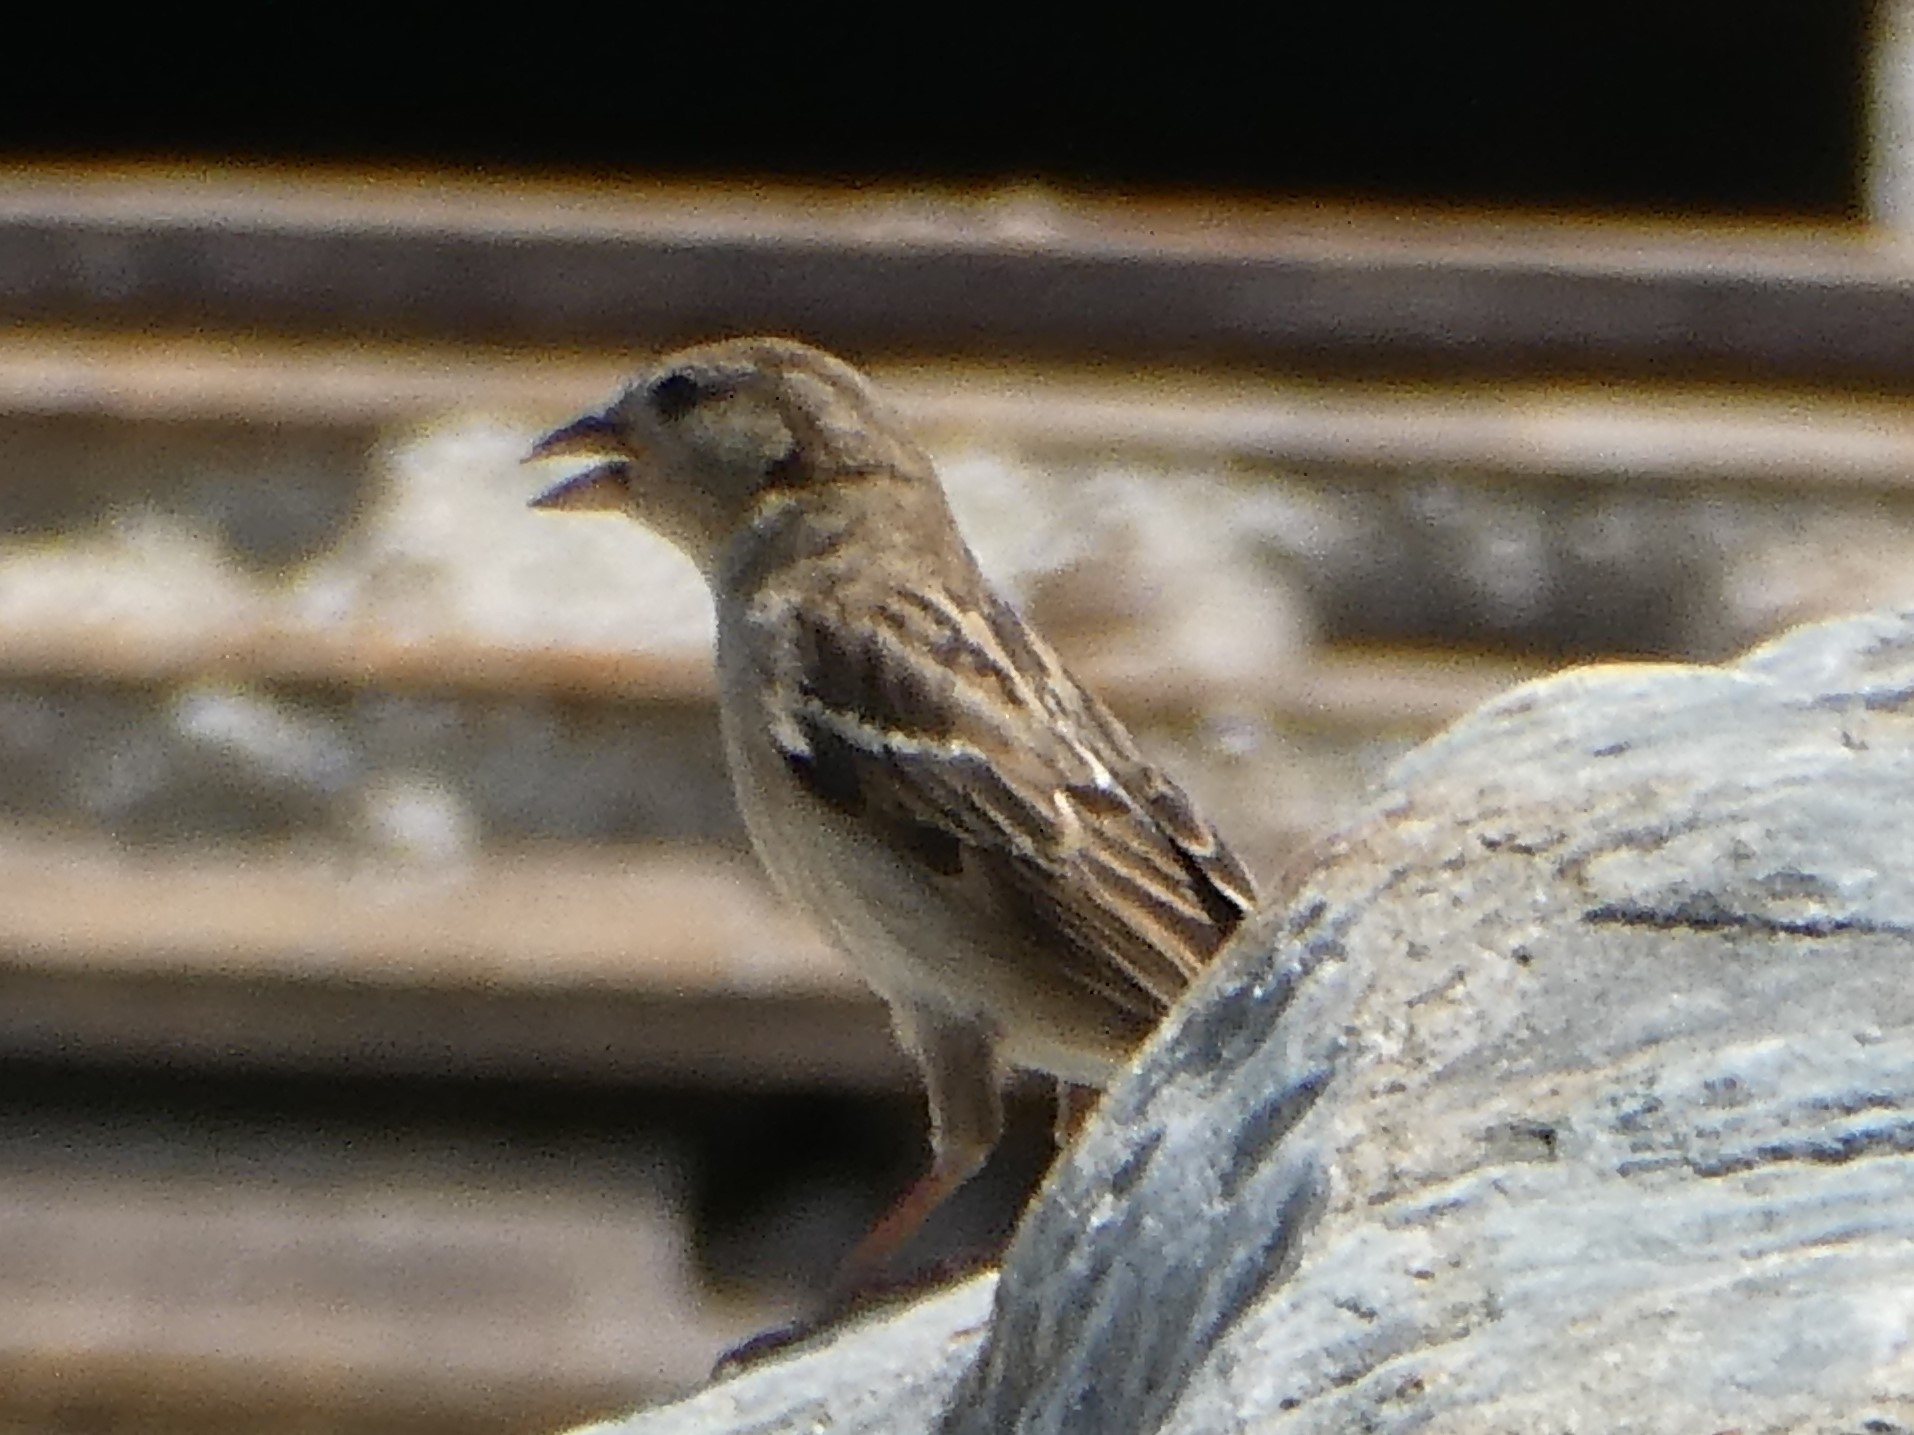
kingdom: Animalia
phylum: Chordata
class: Aves
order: Passeriformes
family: Passeridae
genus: Passer
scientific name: Passer domesticus
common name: House sparrow
